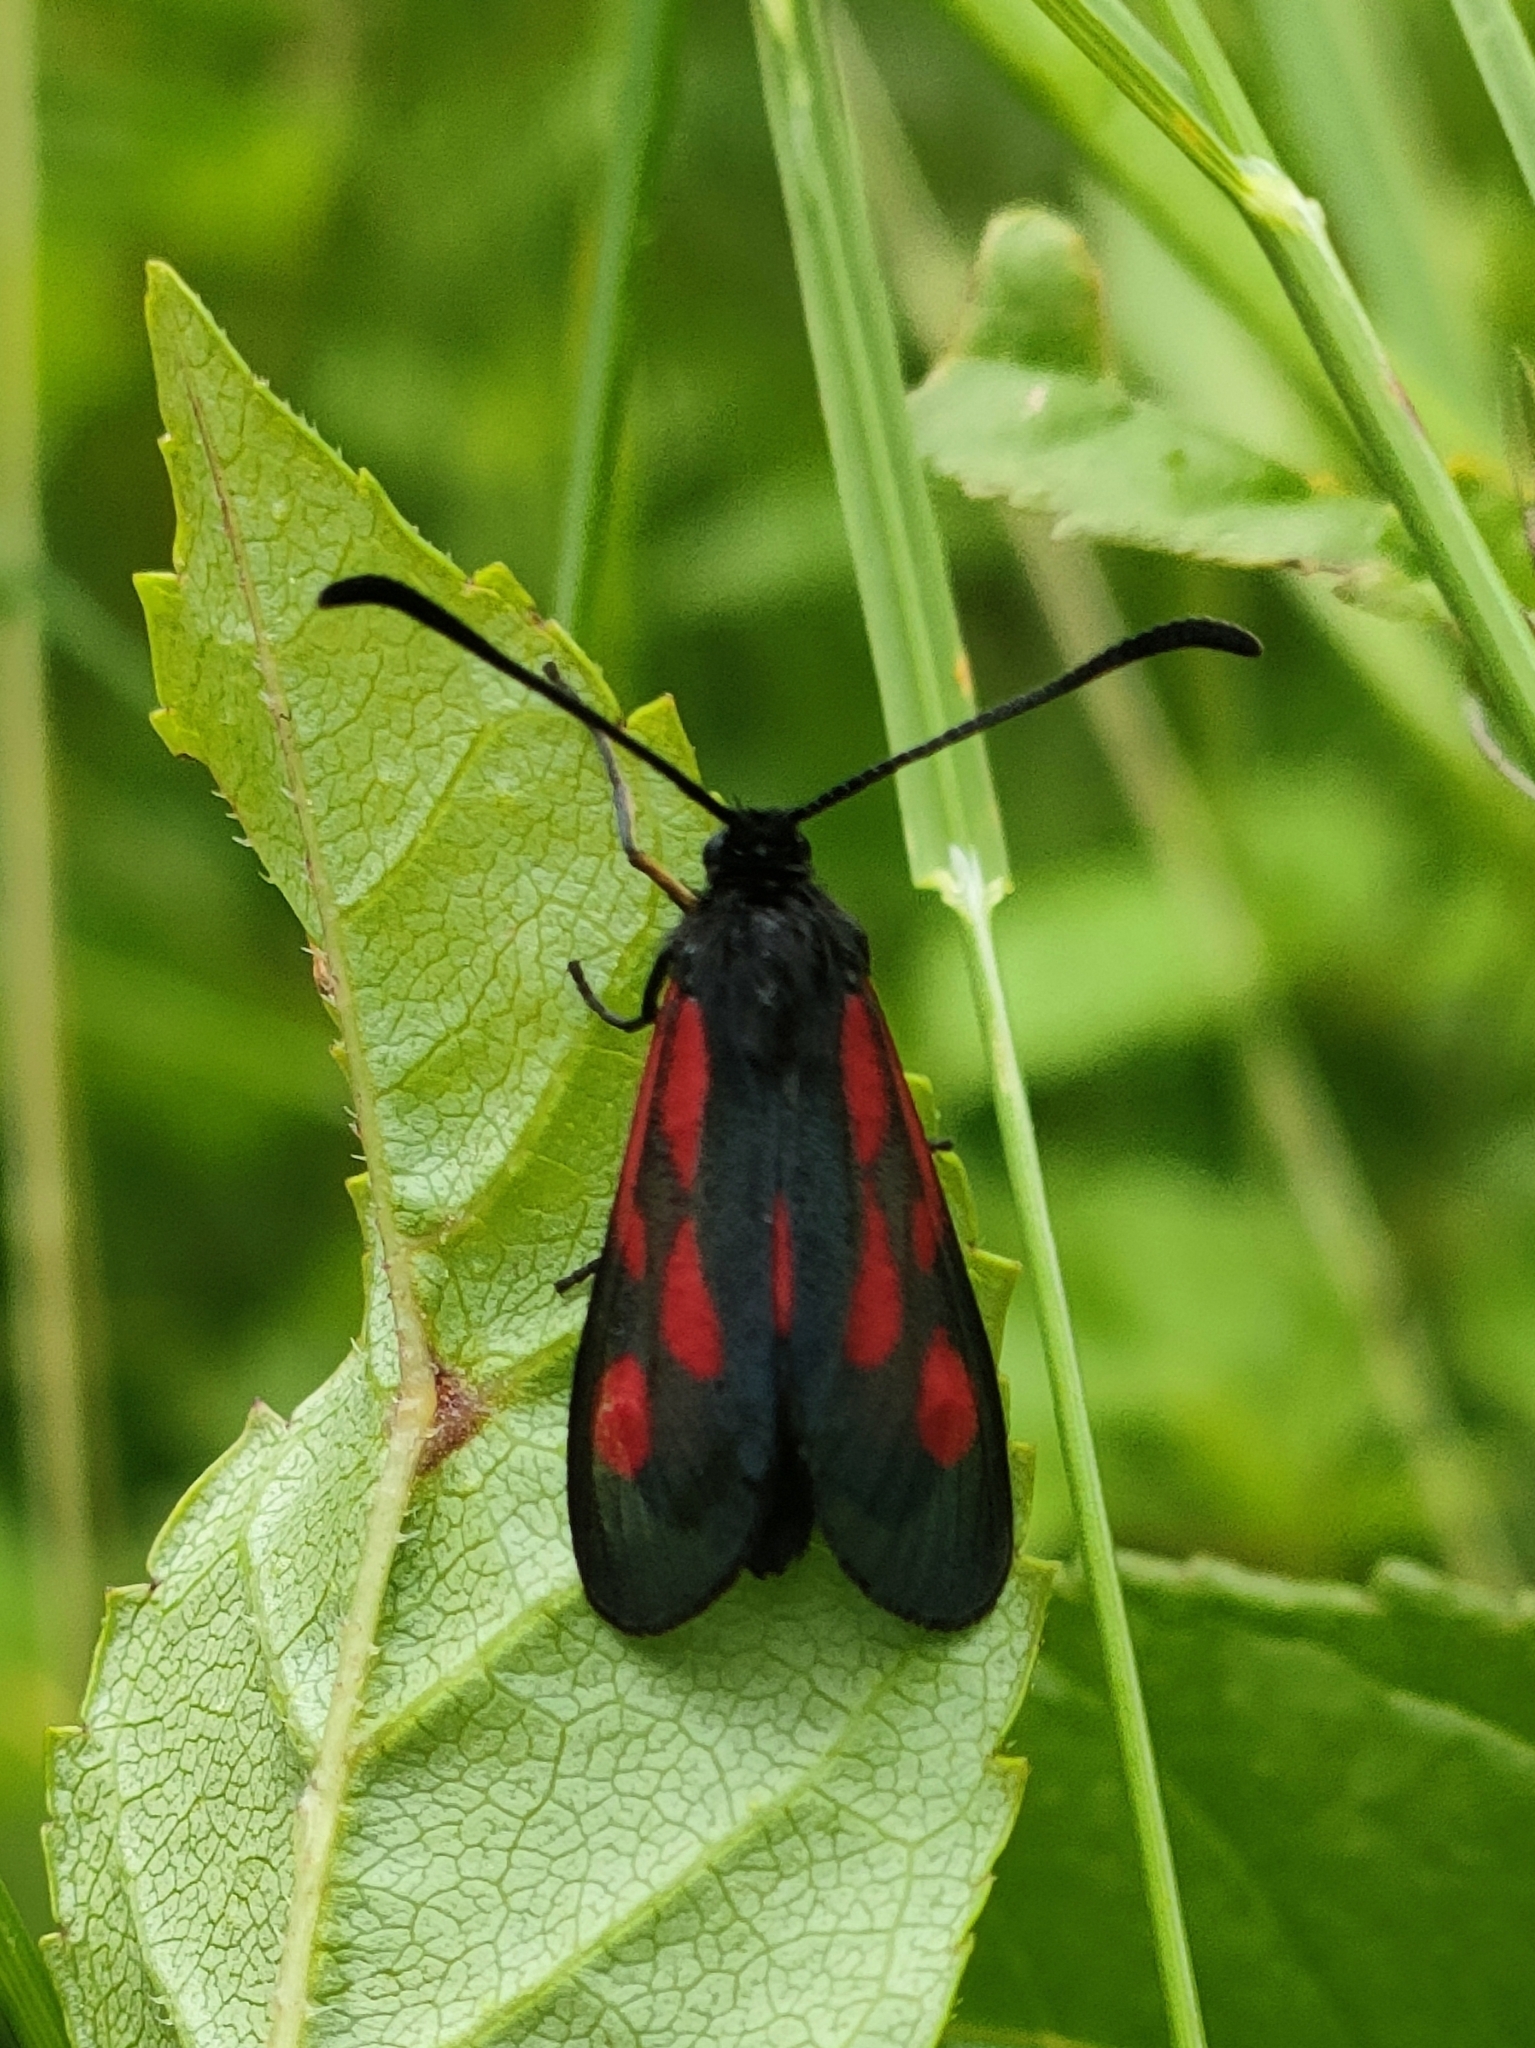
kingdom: Animalia
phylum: Arthropoda
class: Insecta
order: Lepidoptera
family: Zygaenidae
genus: Zygaena
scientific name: Zygaena romeo
